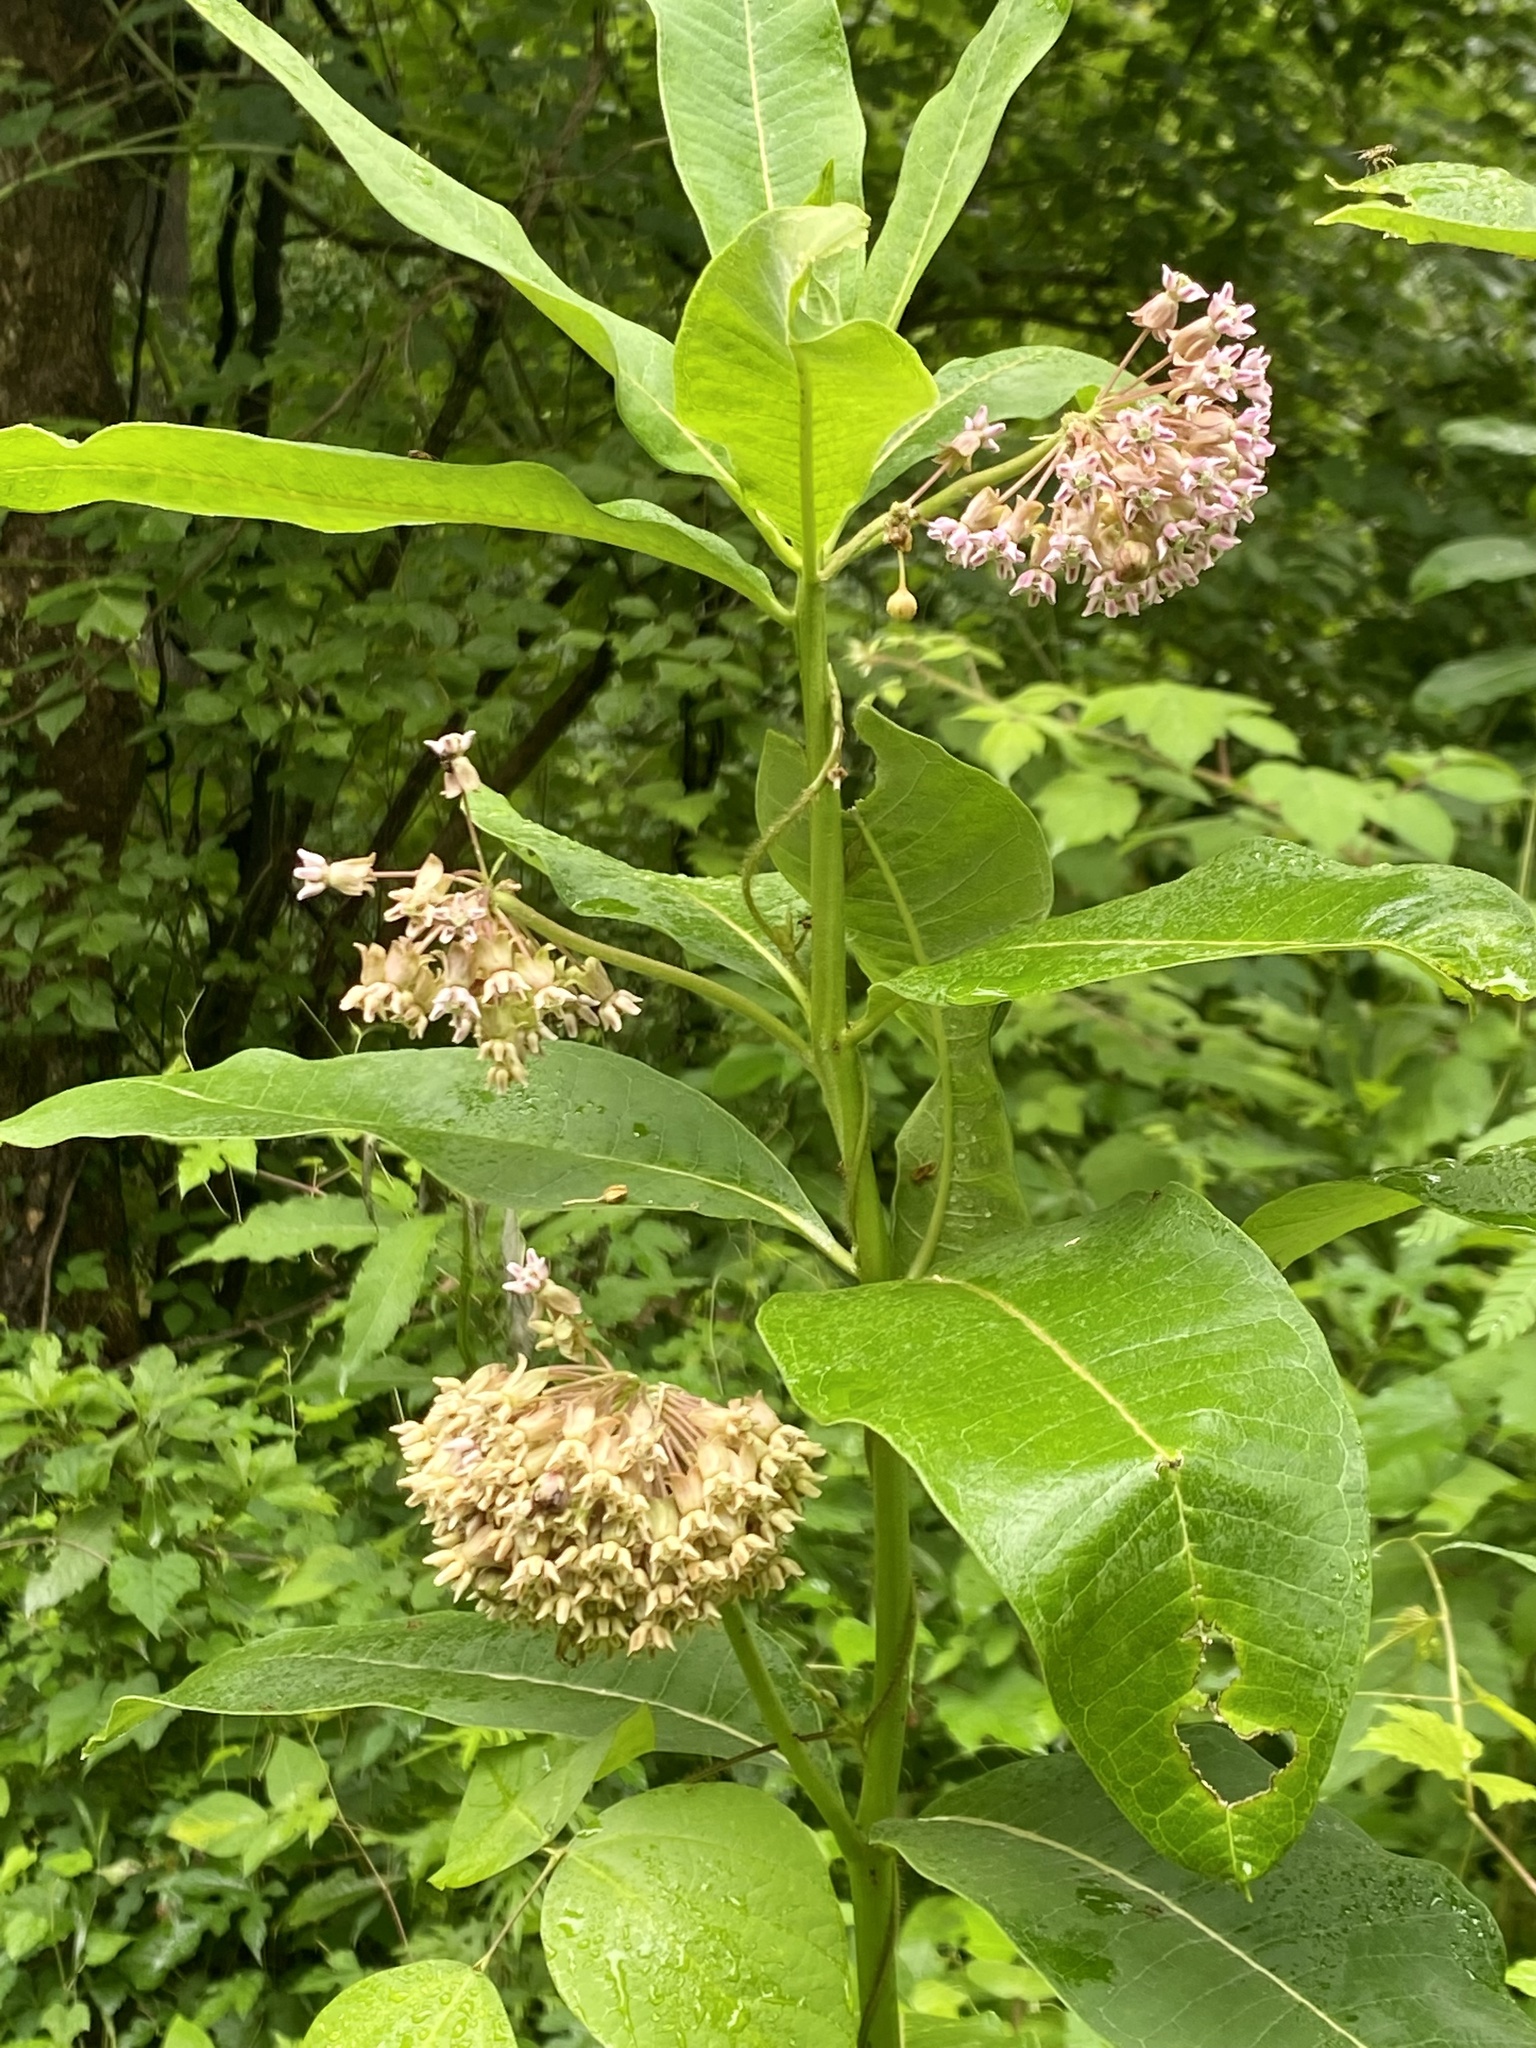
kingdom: Plantae
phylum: Tracheophyta
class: Magnoliopsida
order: Gentianales
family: Apocynaceae
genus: Asclepias
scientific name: Asclepias syriaca
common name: Common milkweed
